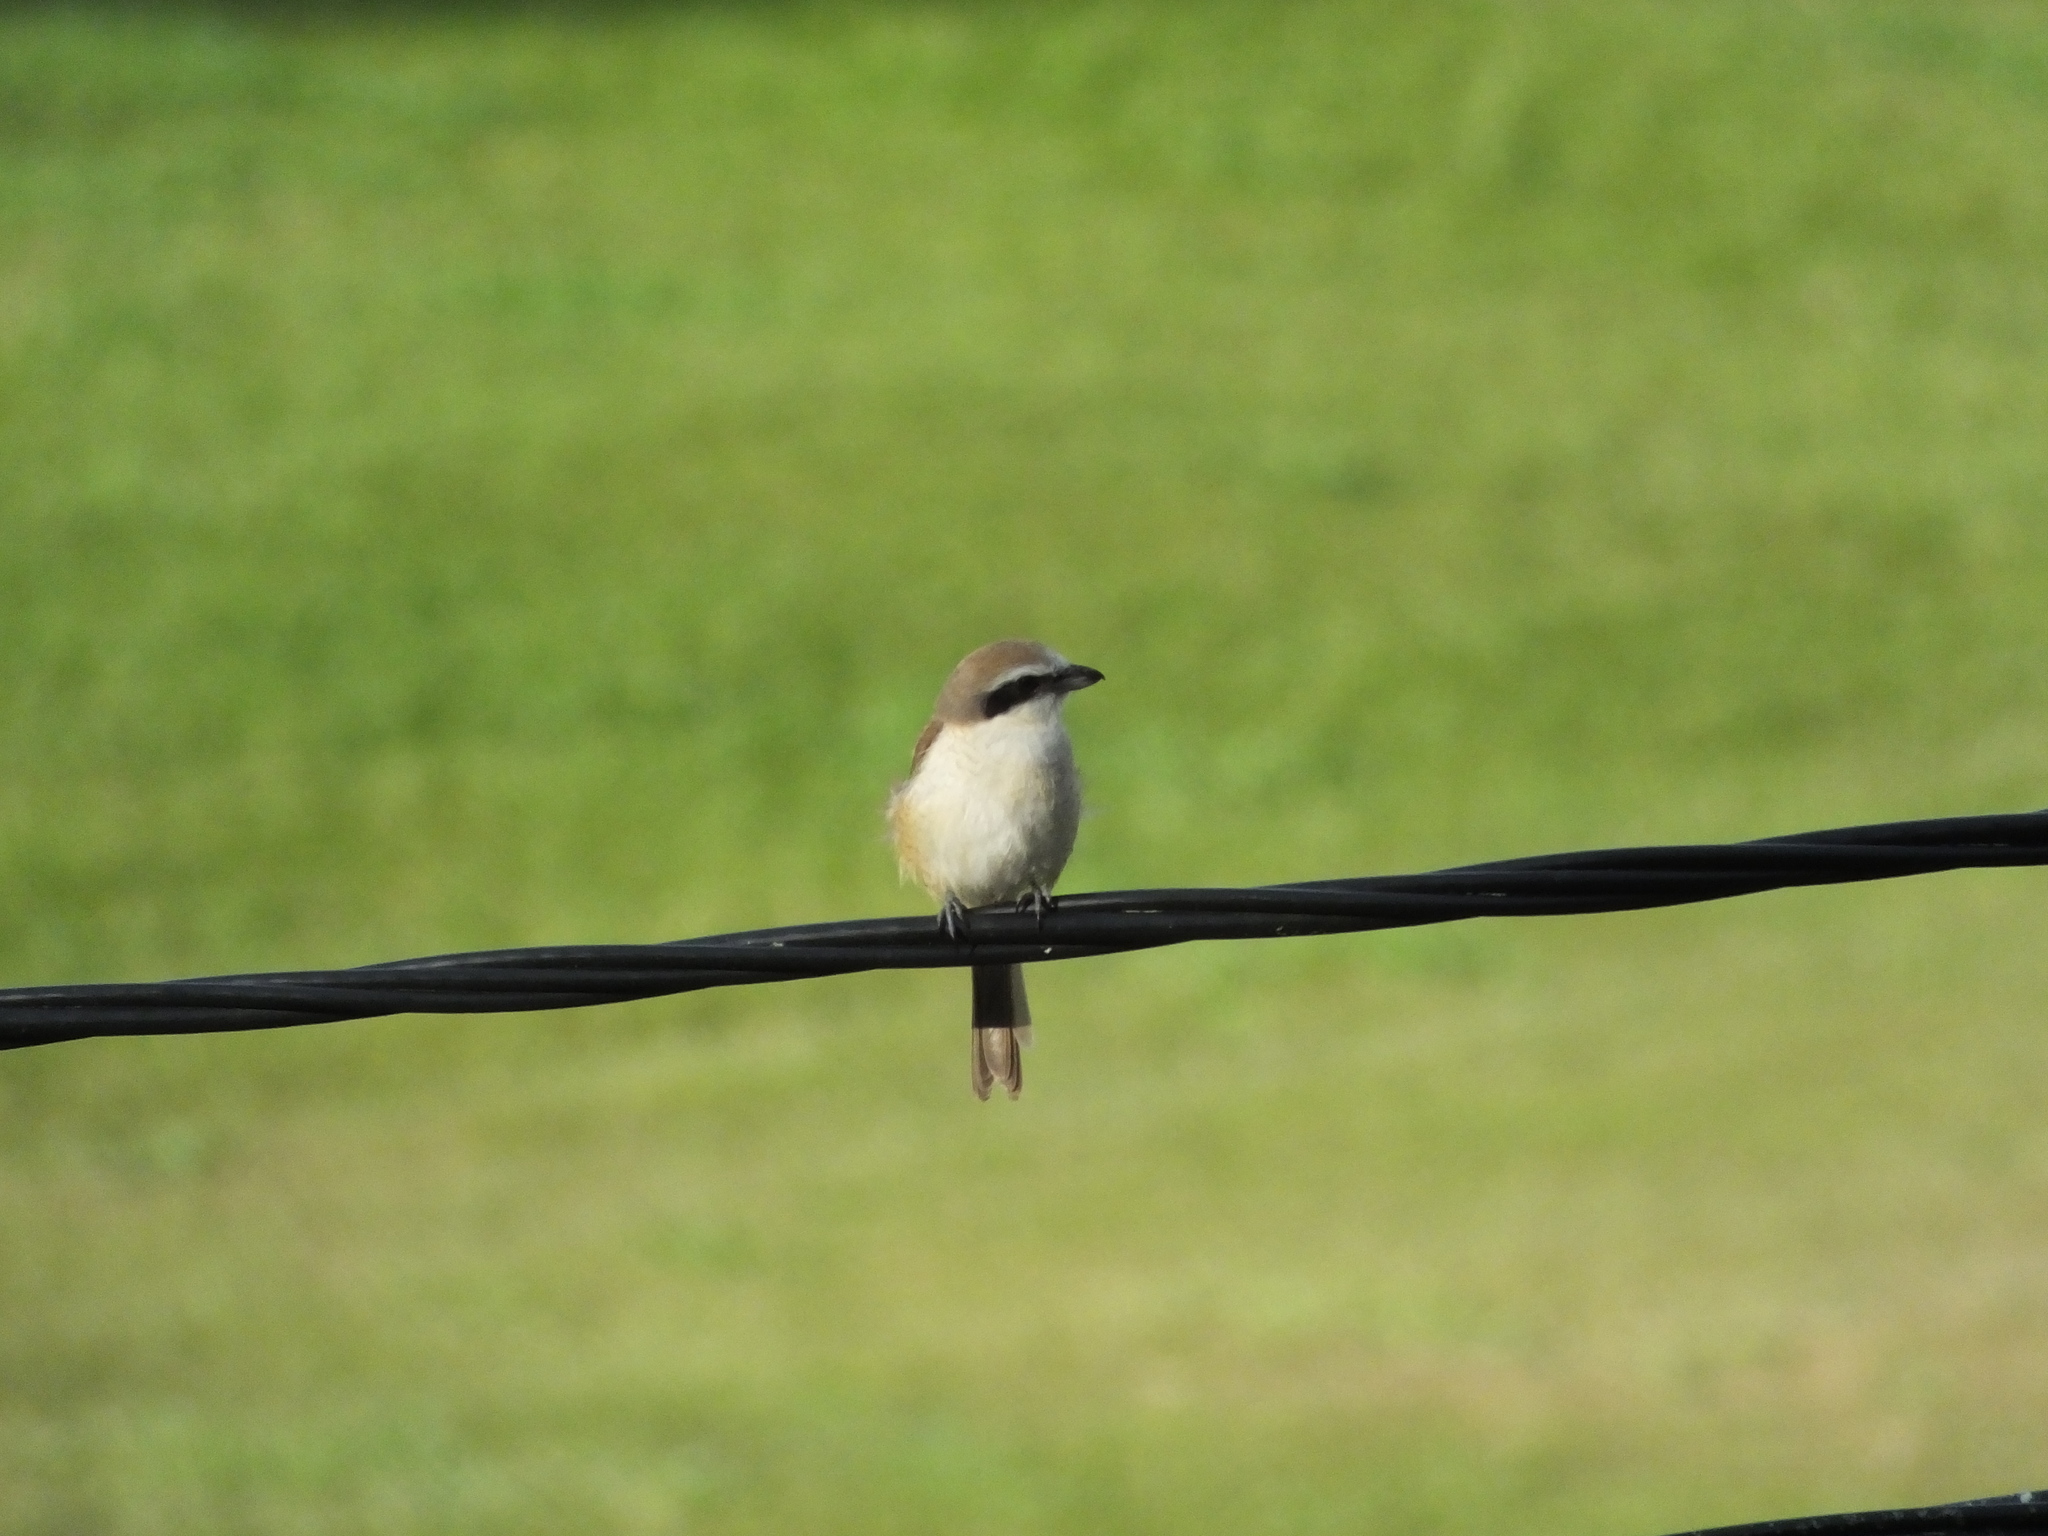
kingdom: Animalia
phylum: Chordata
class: Aves
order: Passeriformes
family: Laniidae
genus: Lanius
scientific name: Lanius cristatus
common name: Brown shrike
